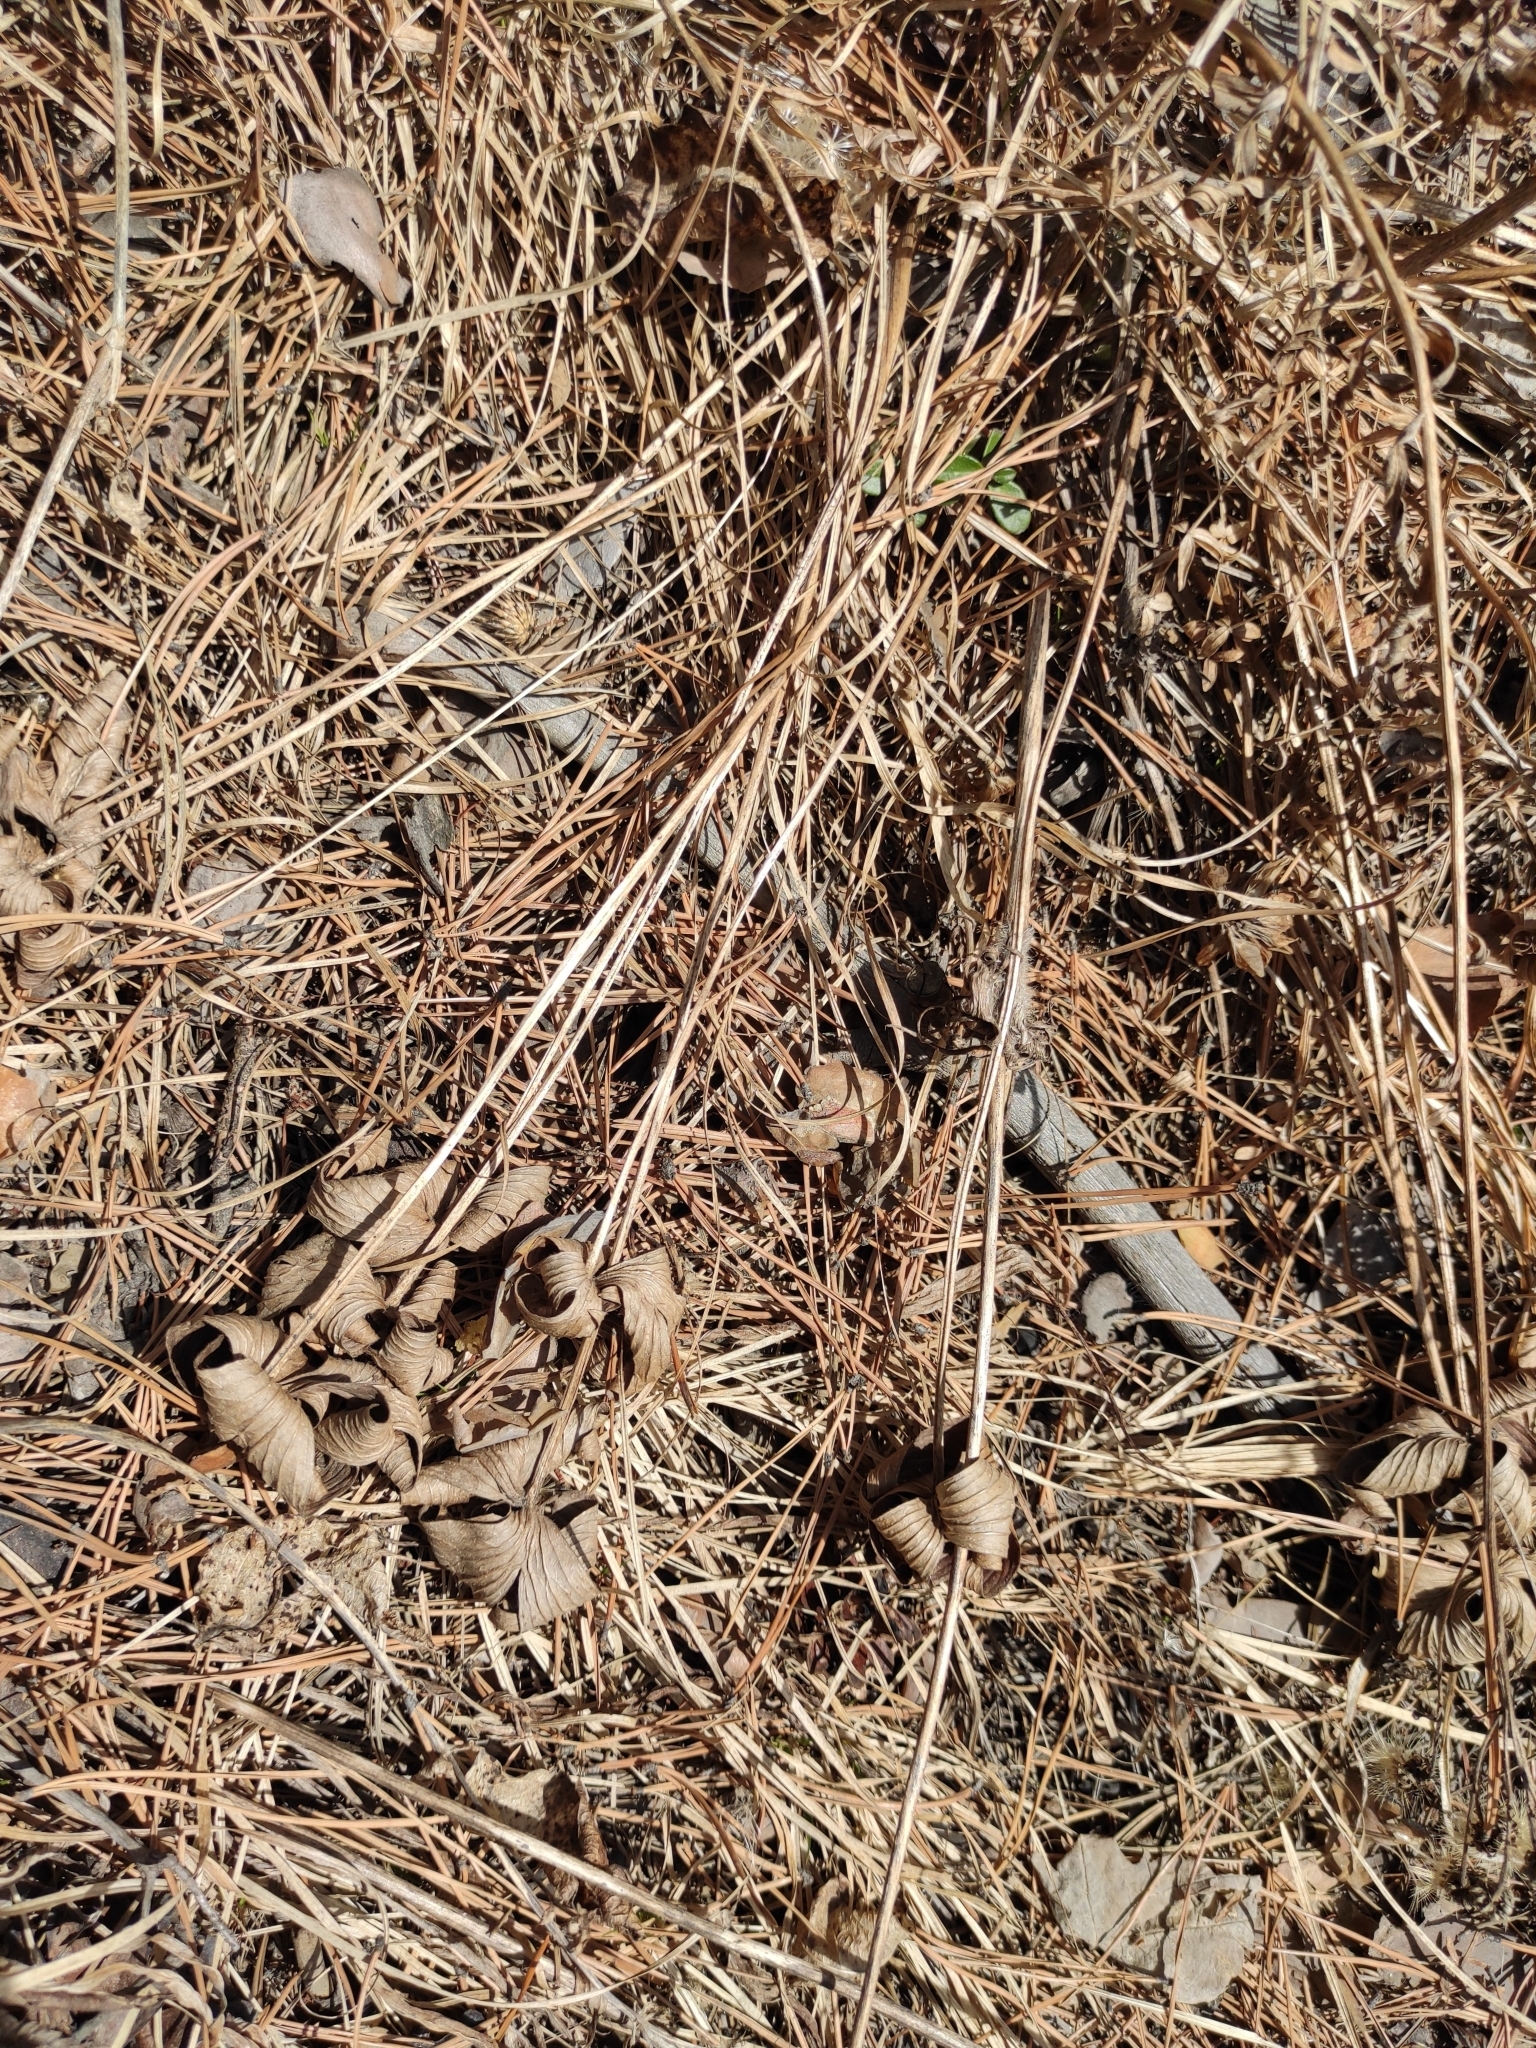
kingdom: Plantae
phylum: Tracheophyta
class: Magnoliopsida
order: Ranunculales
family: Ranunculaceae
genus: Pulsatilla
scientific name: Pulsatilla patens
